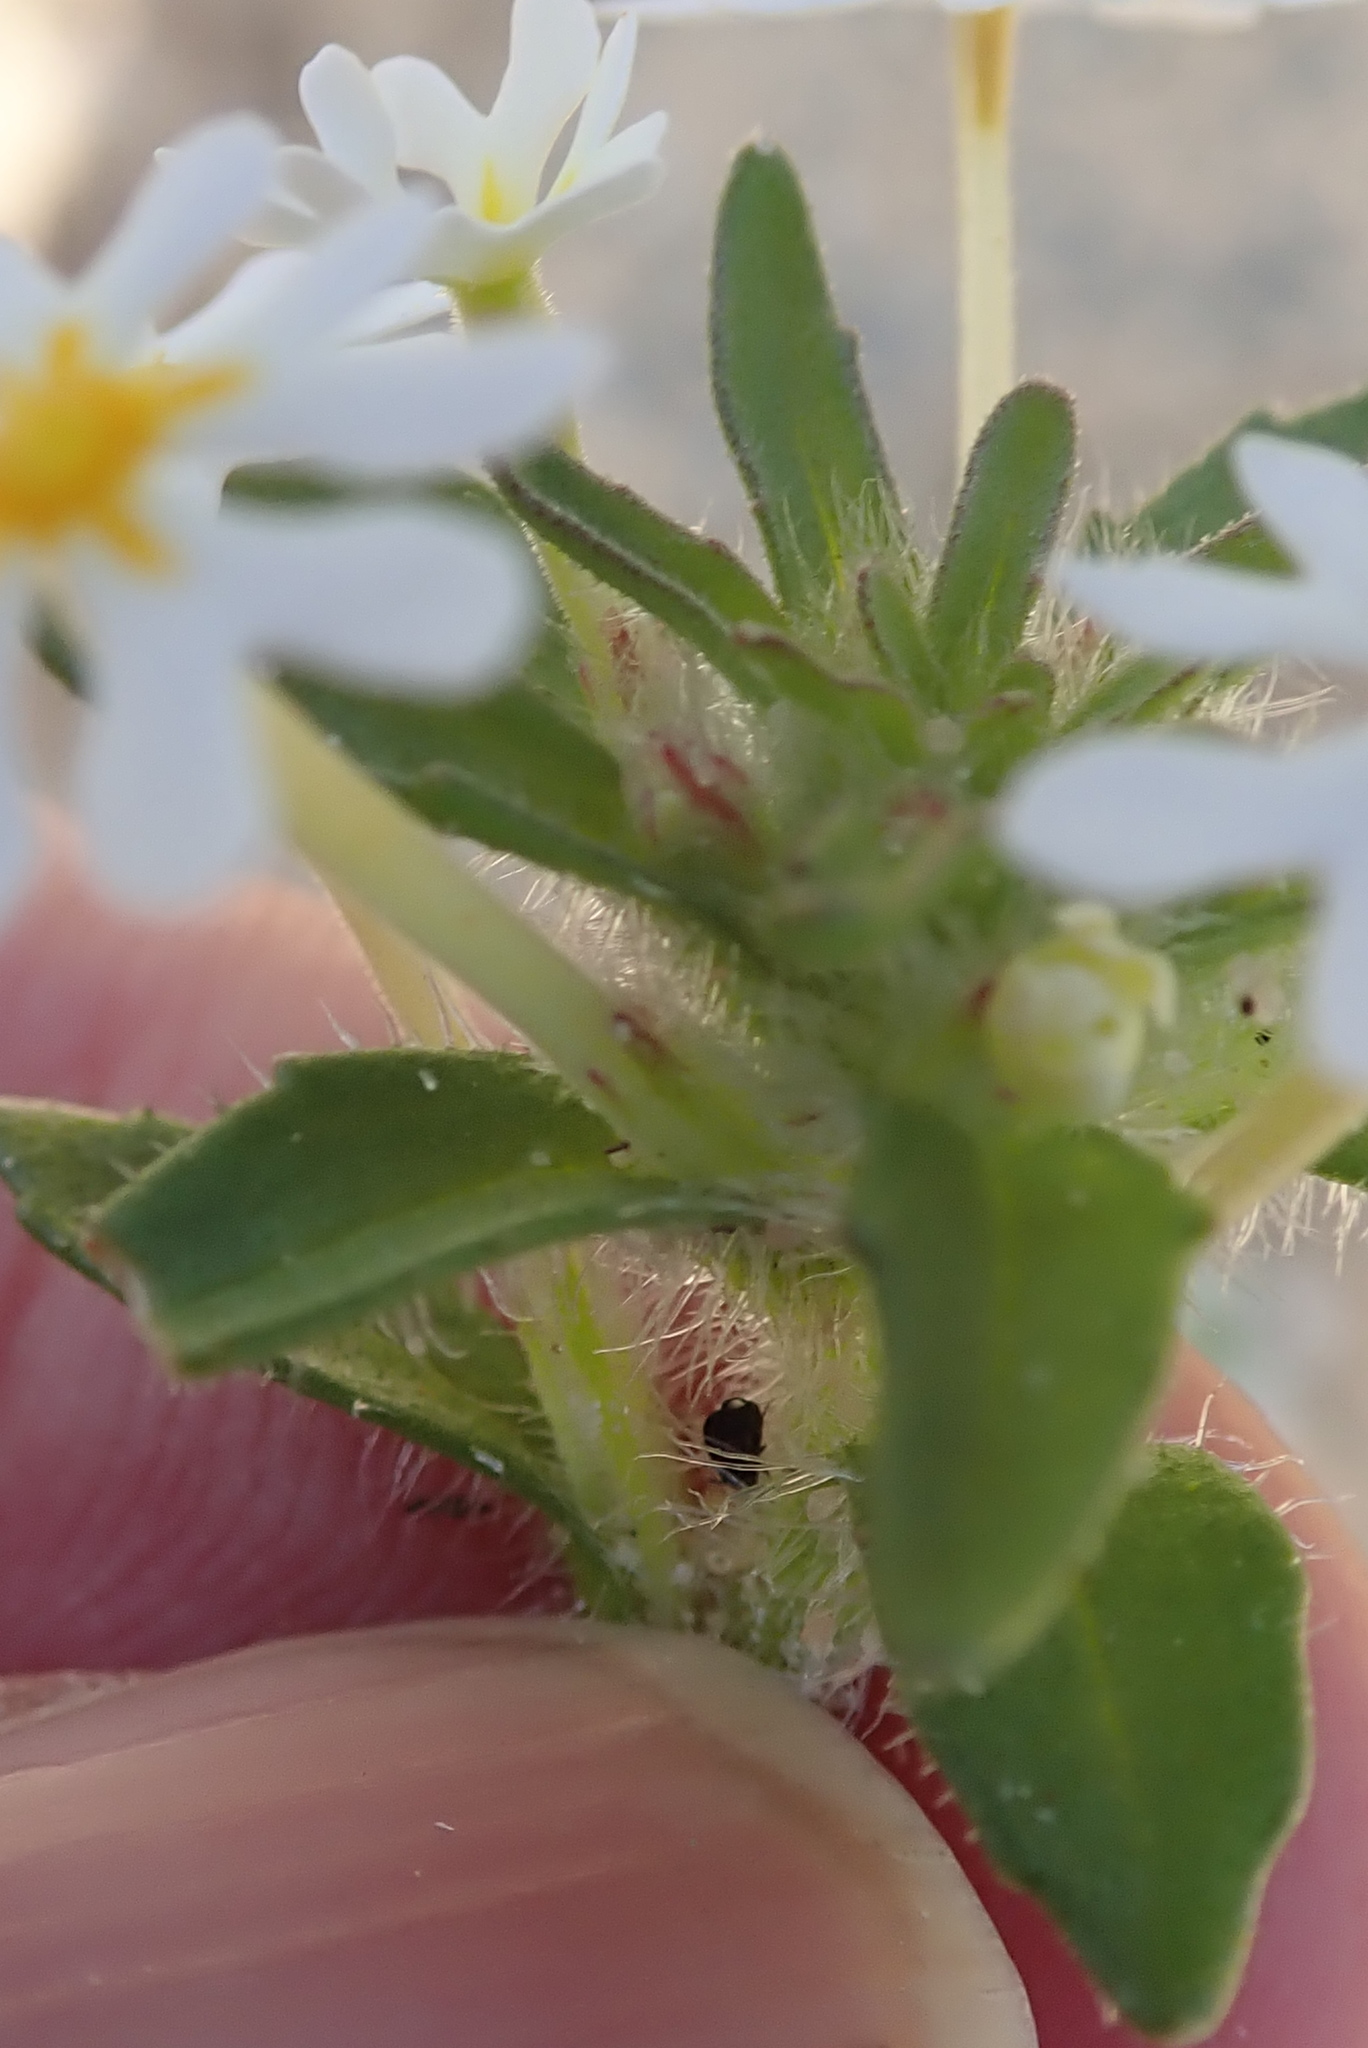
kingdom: Plantae
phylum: Tracheophyta
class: Magnoliopsida
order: Lamiales
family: Scrophulariaceae
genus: Zaluzianskya
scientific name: Zaluzianskya affinis
